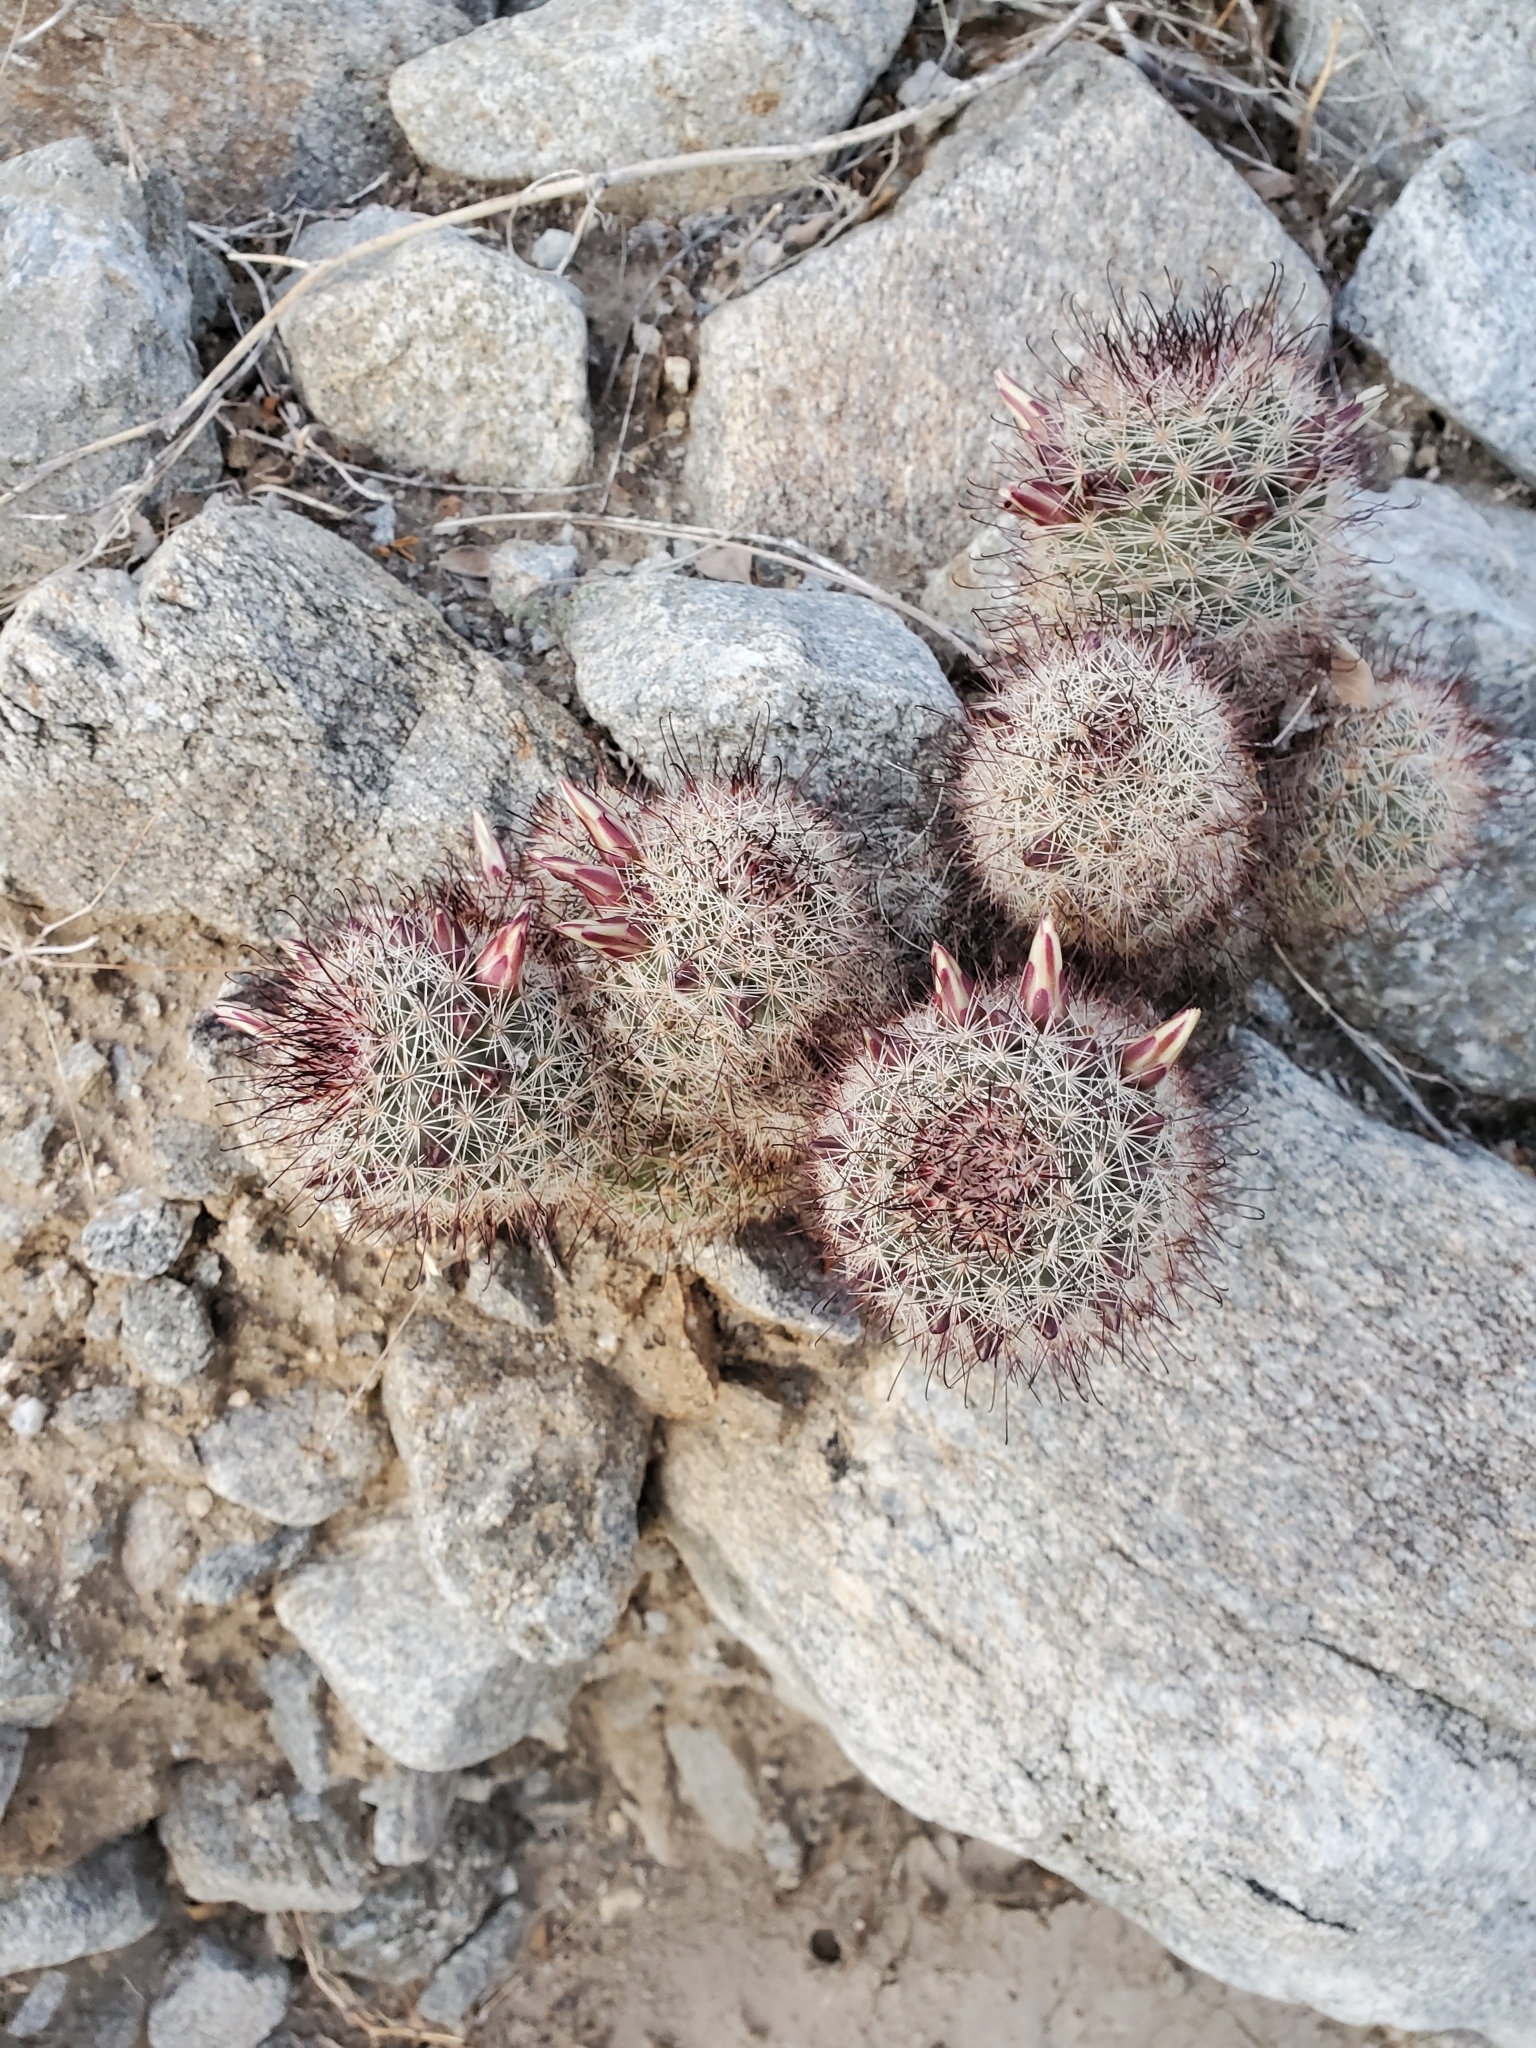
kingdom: Plantae
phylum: Tracheophyta
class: Magnoliopsida
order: Caryophyllales
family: Cactaceae
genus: Cochemiea
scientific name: Cochemiea dioica
